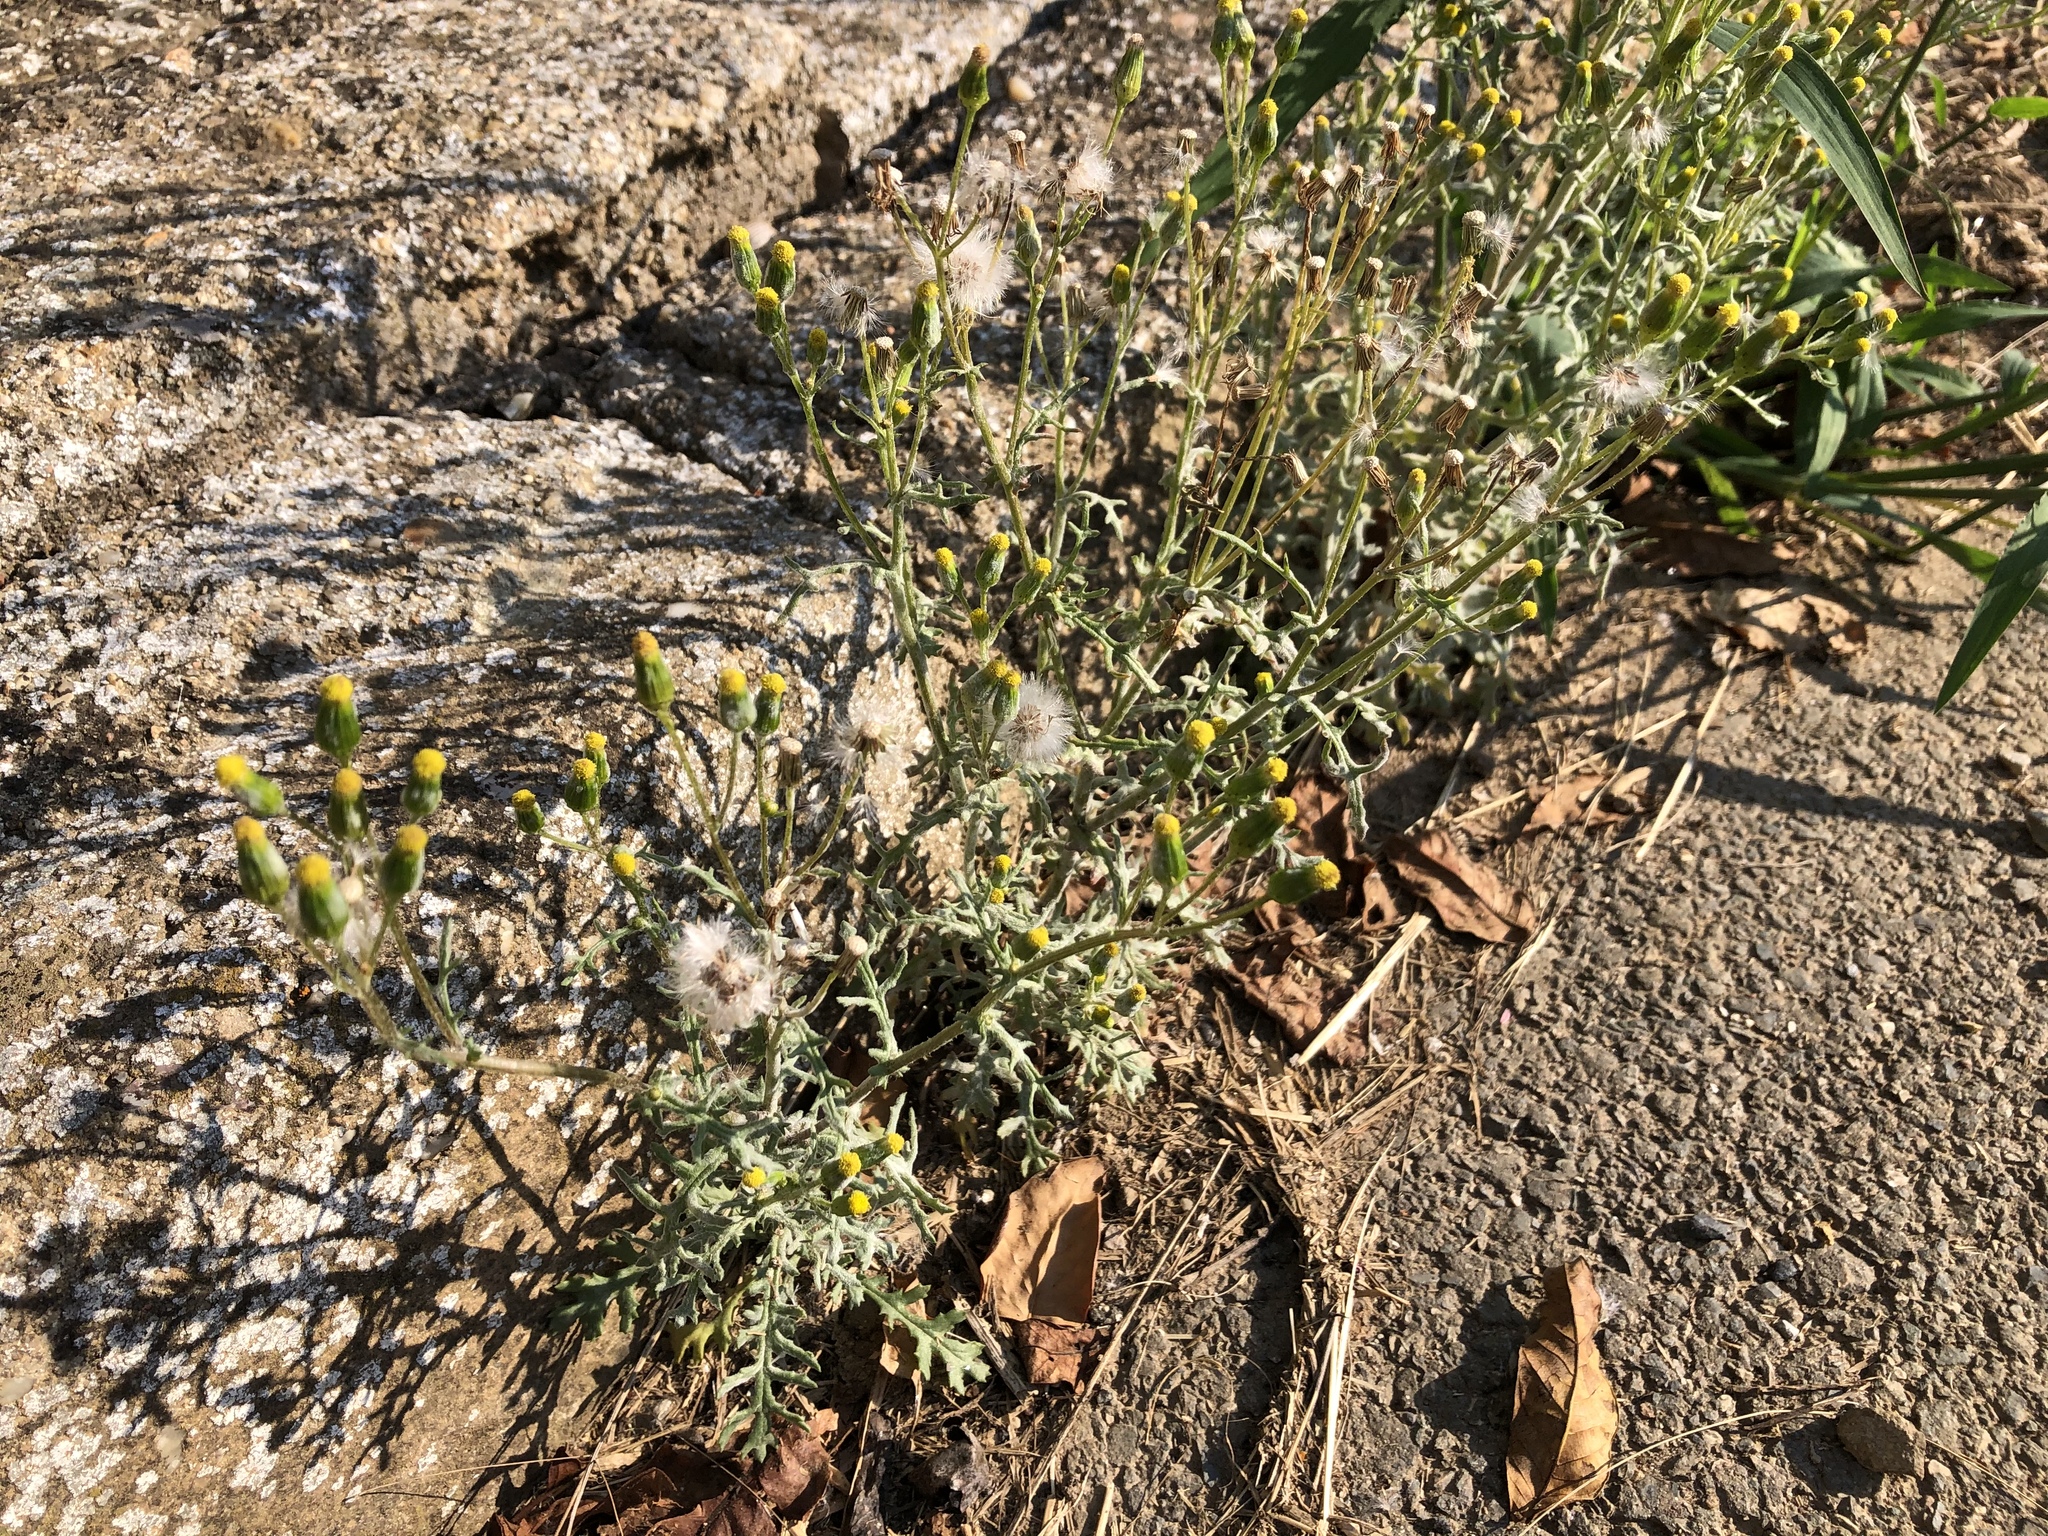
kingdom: Plantae
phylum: Tracheophyta
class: Magnoliopsida
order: Asterales
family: Asteraceae
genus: Senecio
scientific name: Senecio vulgaris
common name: Old-man-in-the-spring
